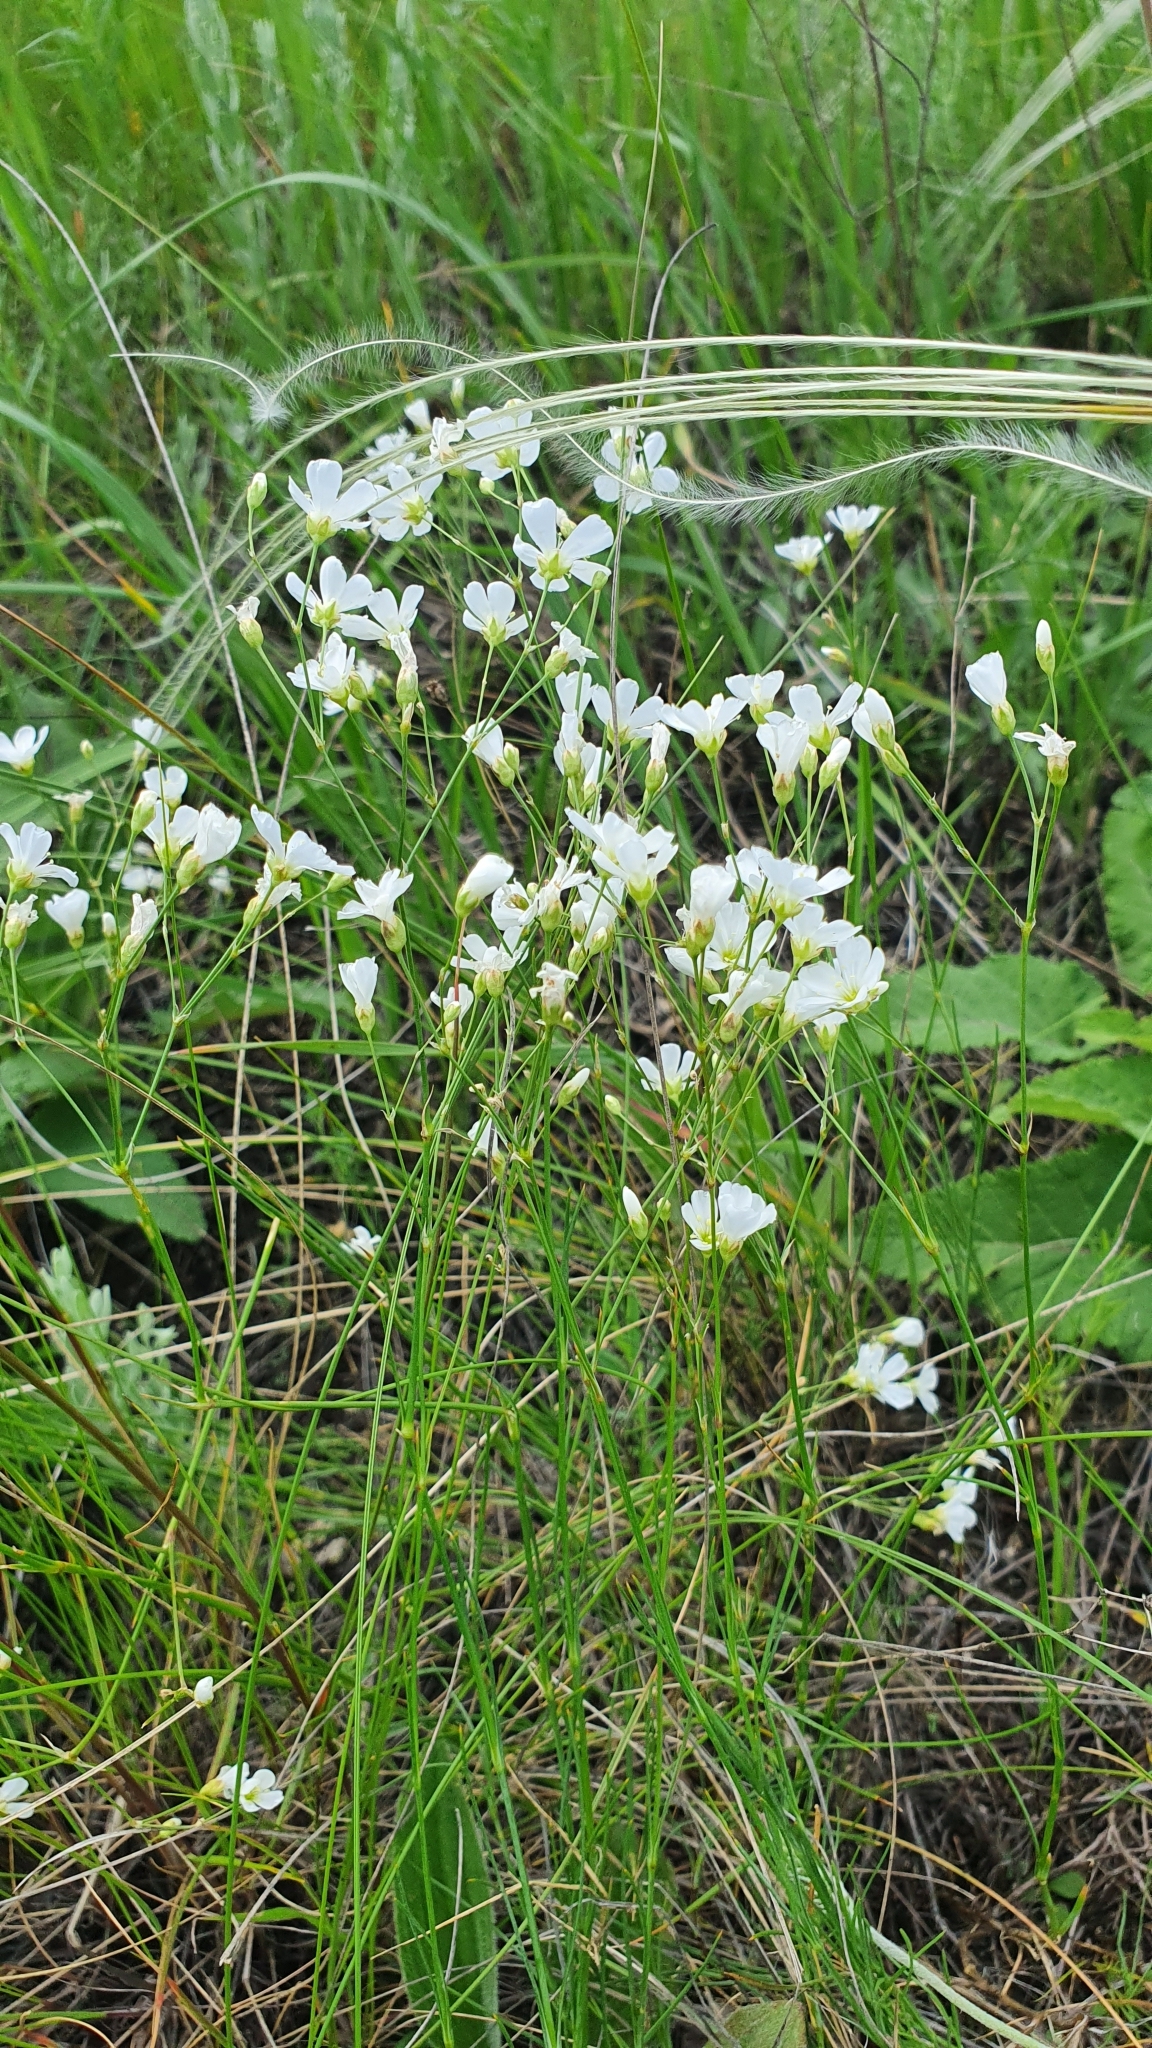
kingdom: Plantae
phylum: Tracheophyta
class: Magnoliopsida
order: Caryophyllales
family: Caryophyllaceae
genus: Eremogone
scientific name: Eremogone saxatilis
